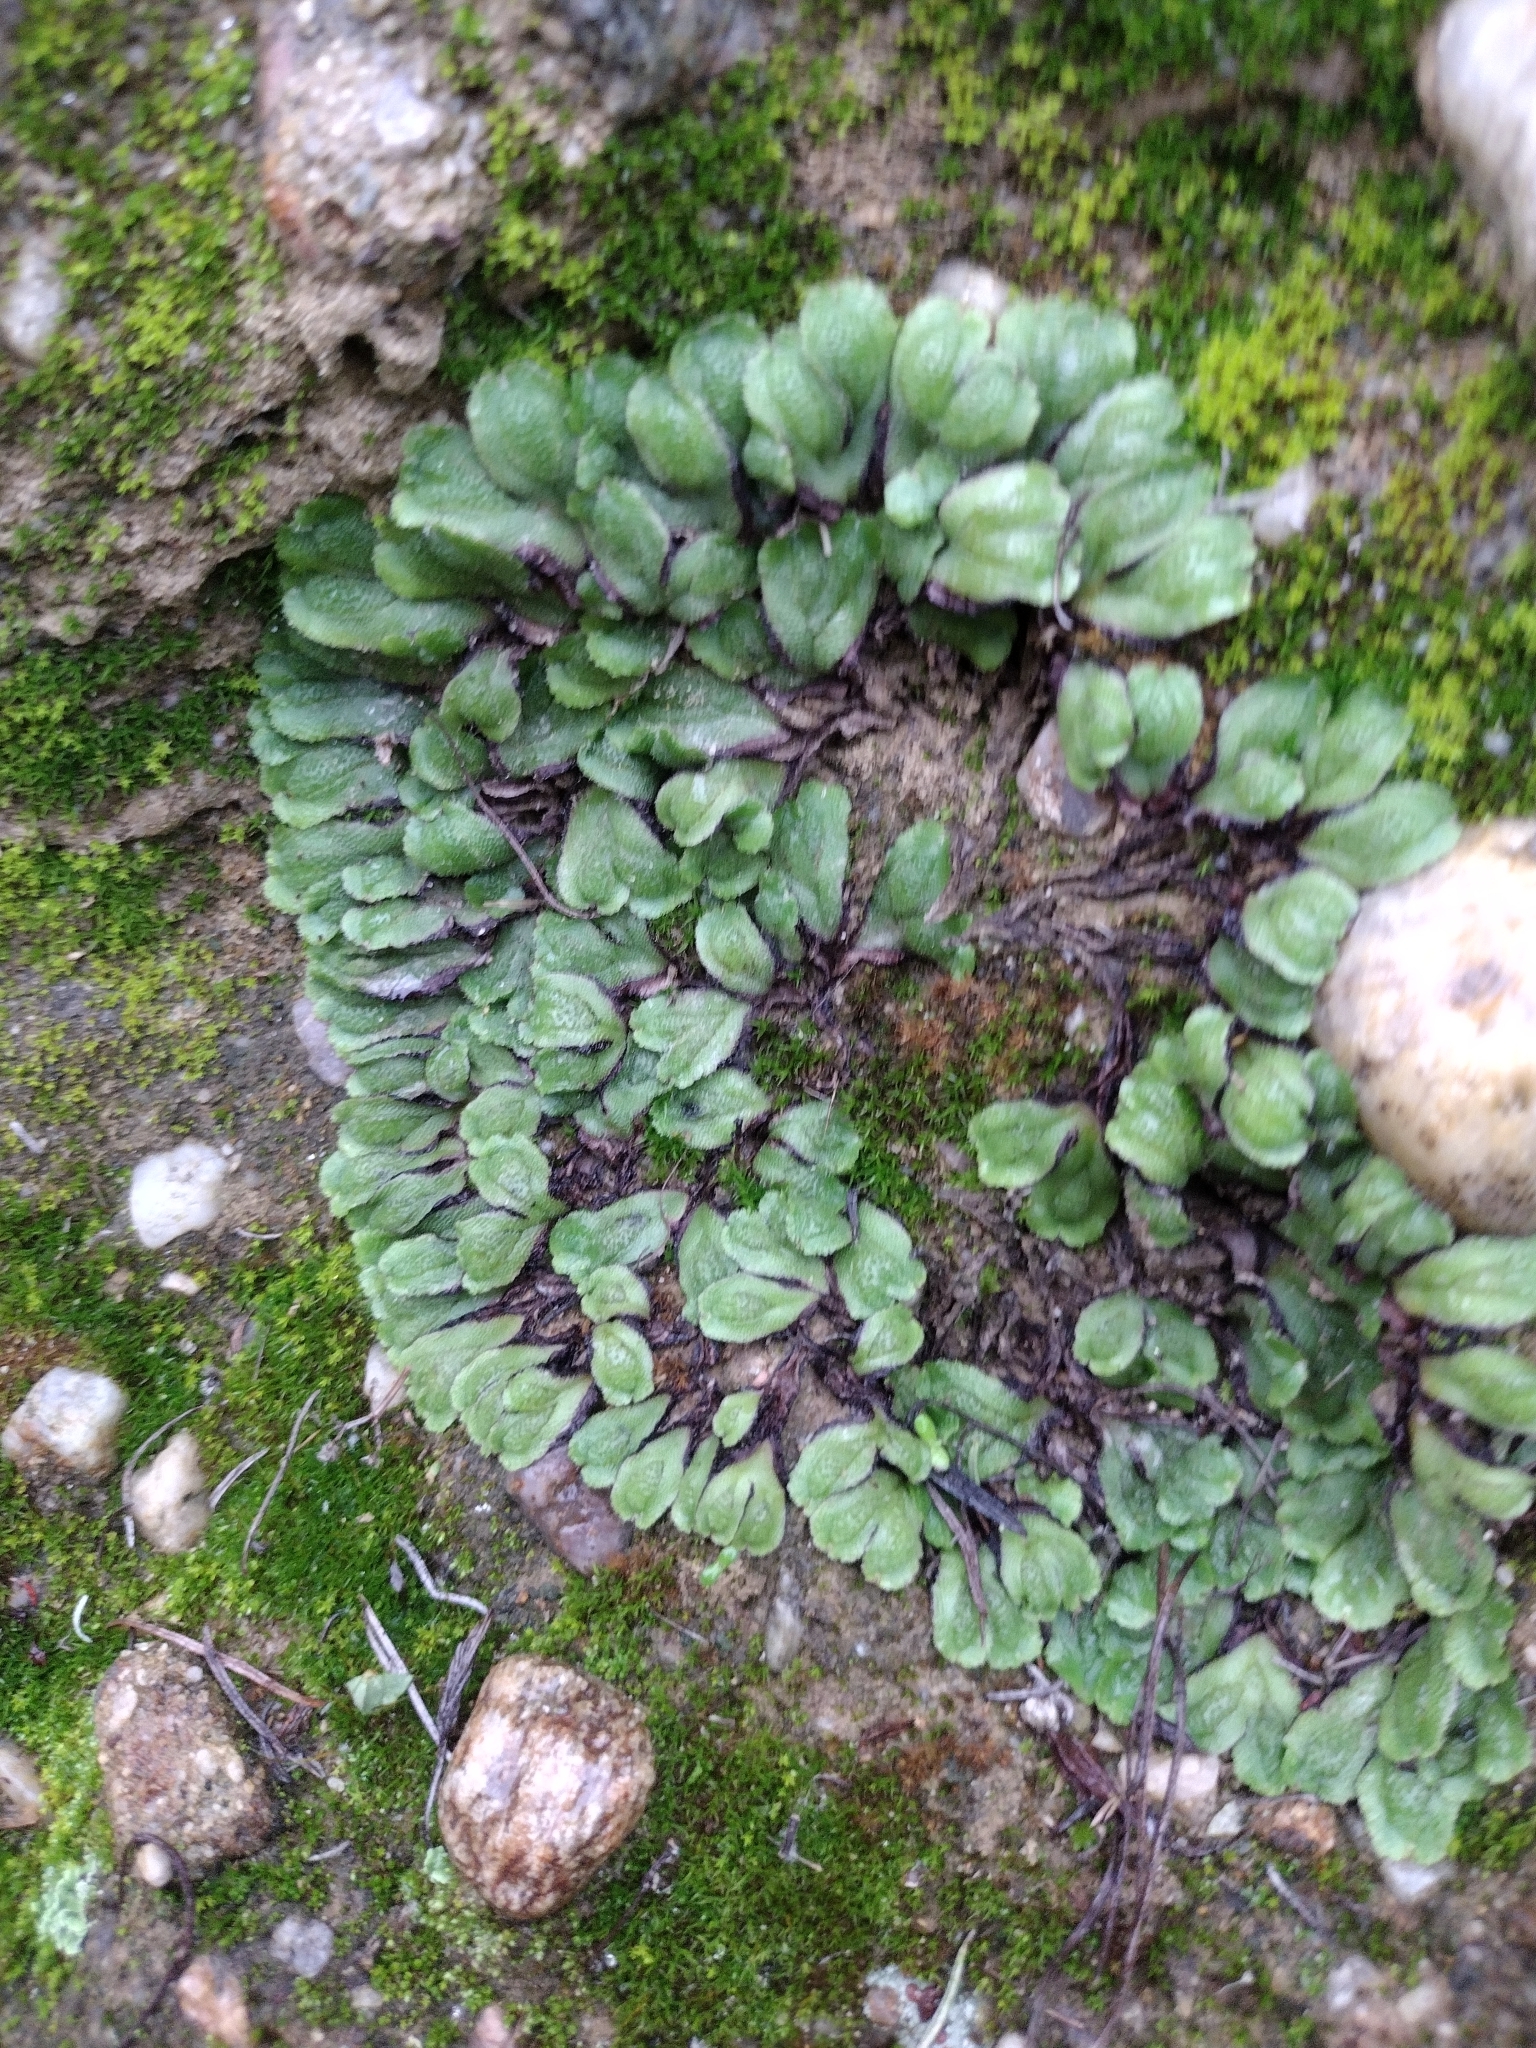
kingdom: Plantae
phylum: Marchantiophyta
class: Marchantiopsida
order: Marchantiales
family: Aytoniaceae
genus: Asterella
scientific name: Asterella californica
